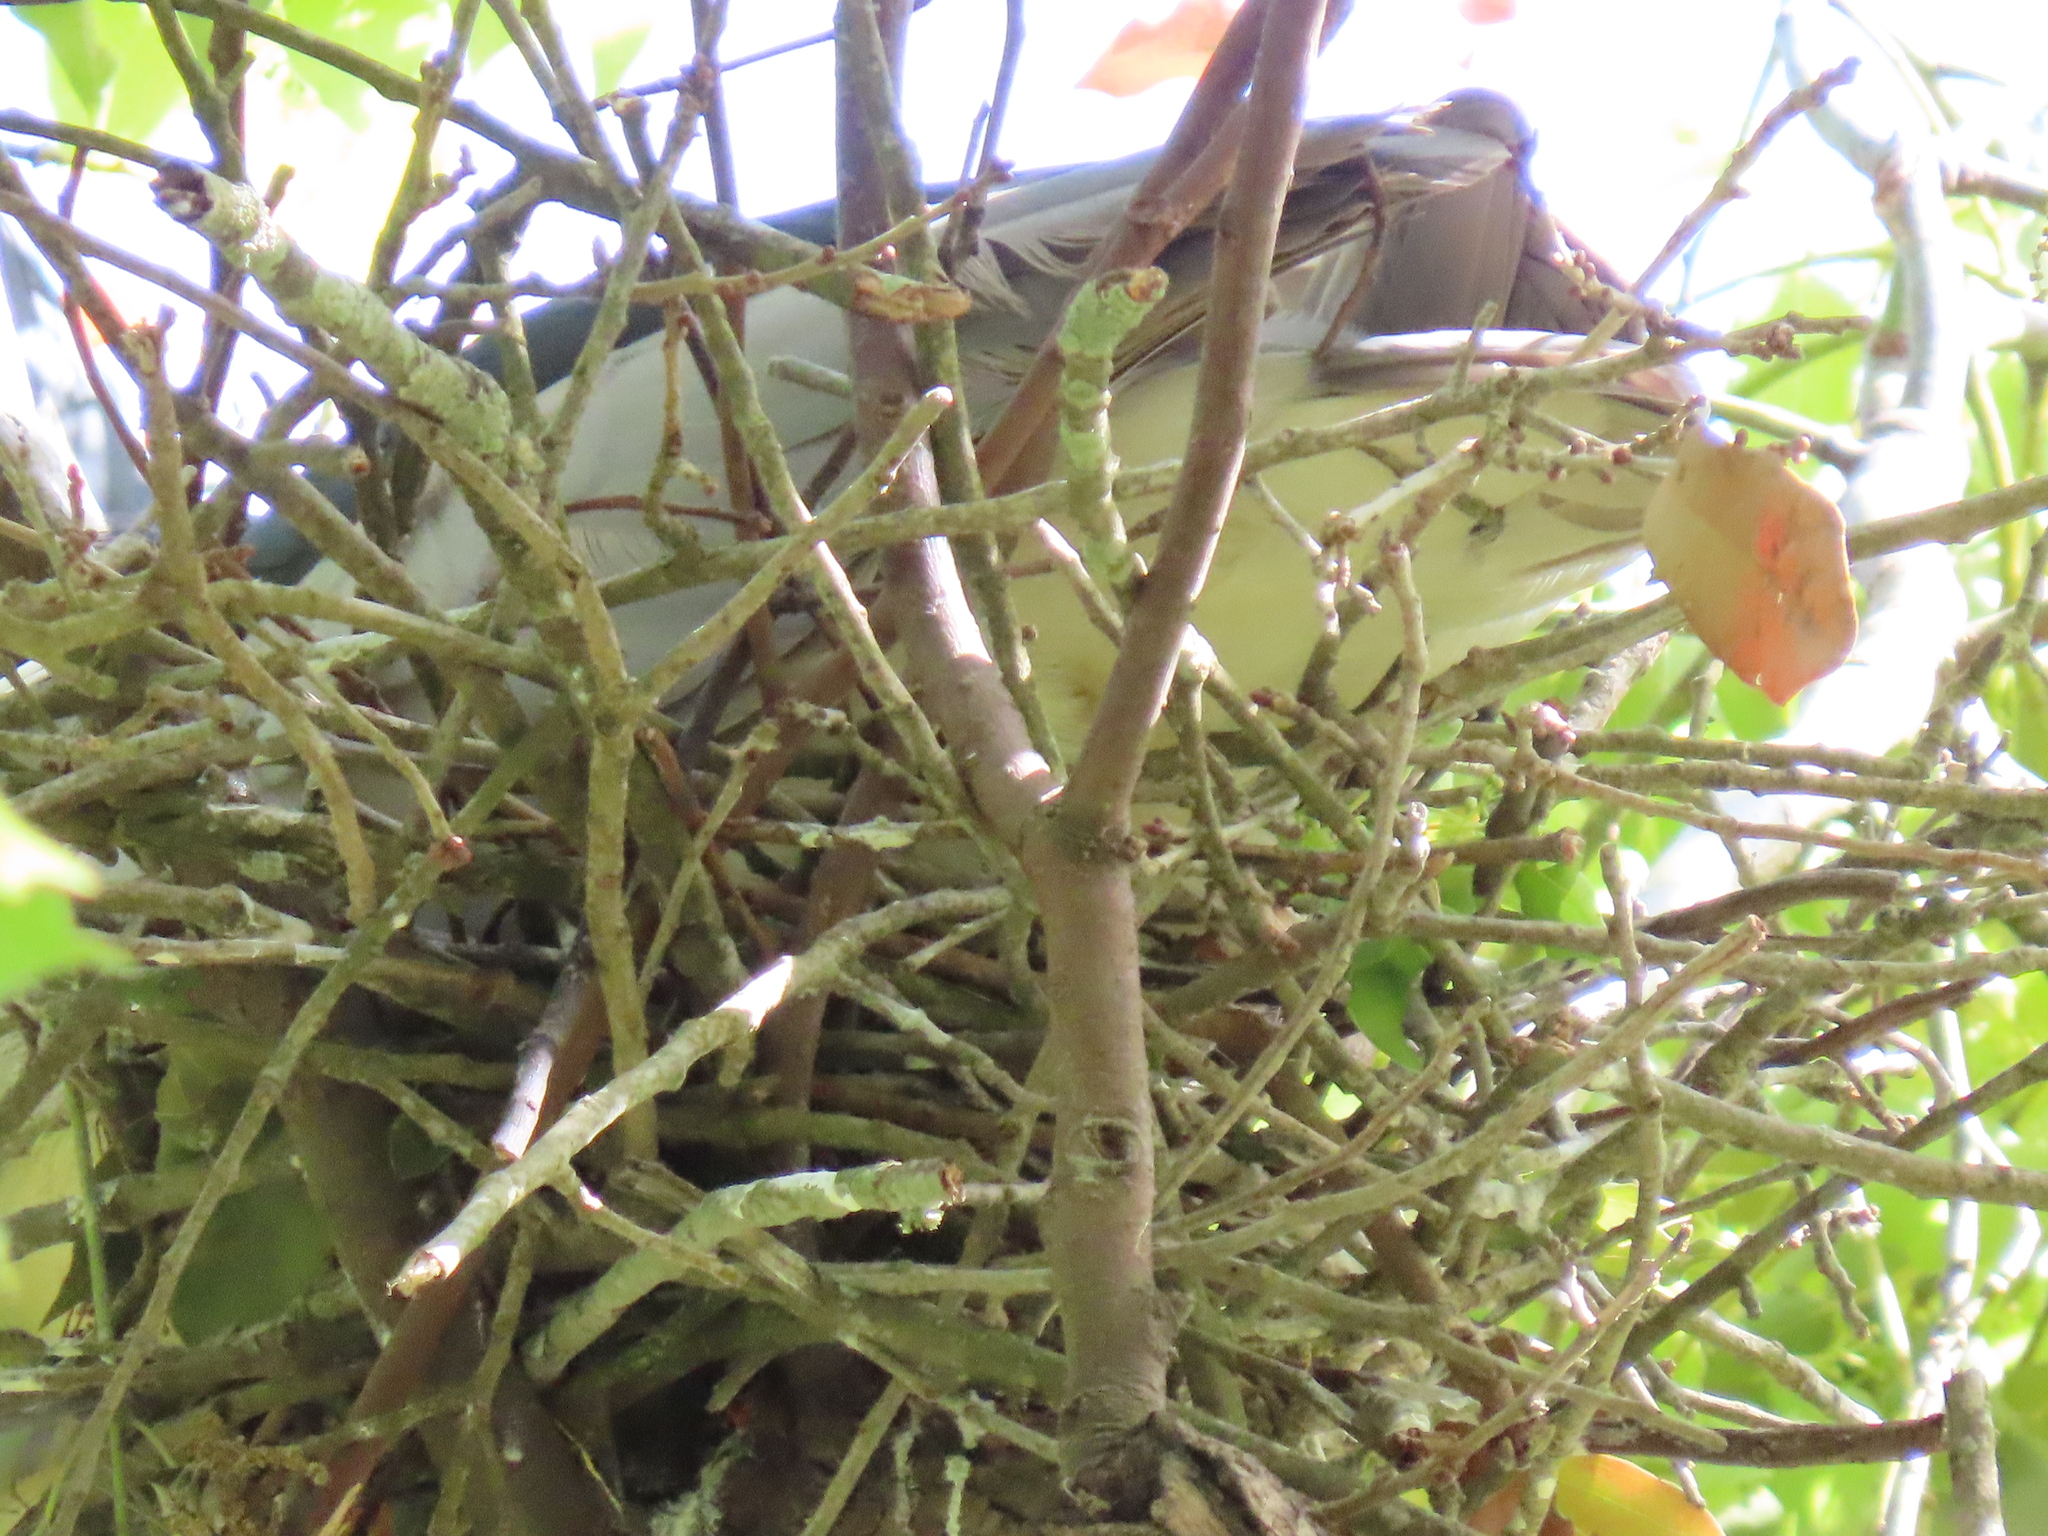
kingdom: Animalia
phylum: Chordata
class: Aves
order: Pelecaniformes
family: Ardeidae
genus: Nycticorax
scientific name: Nycticorax nycticorax
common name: Black-crowned night heron
